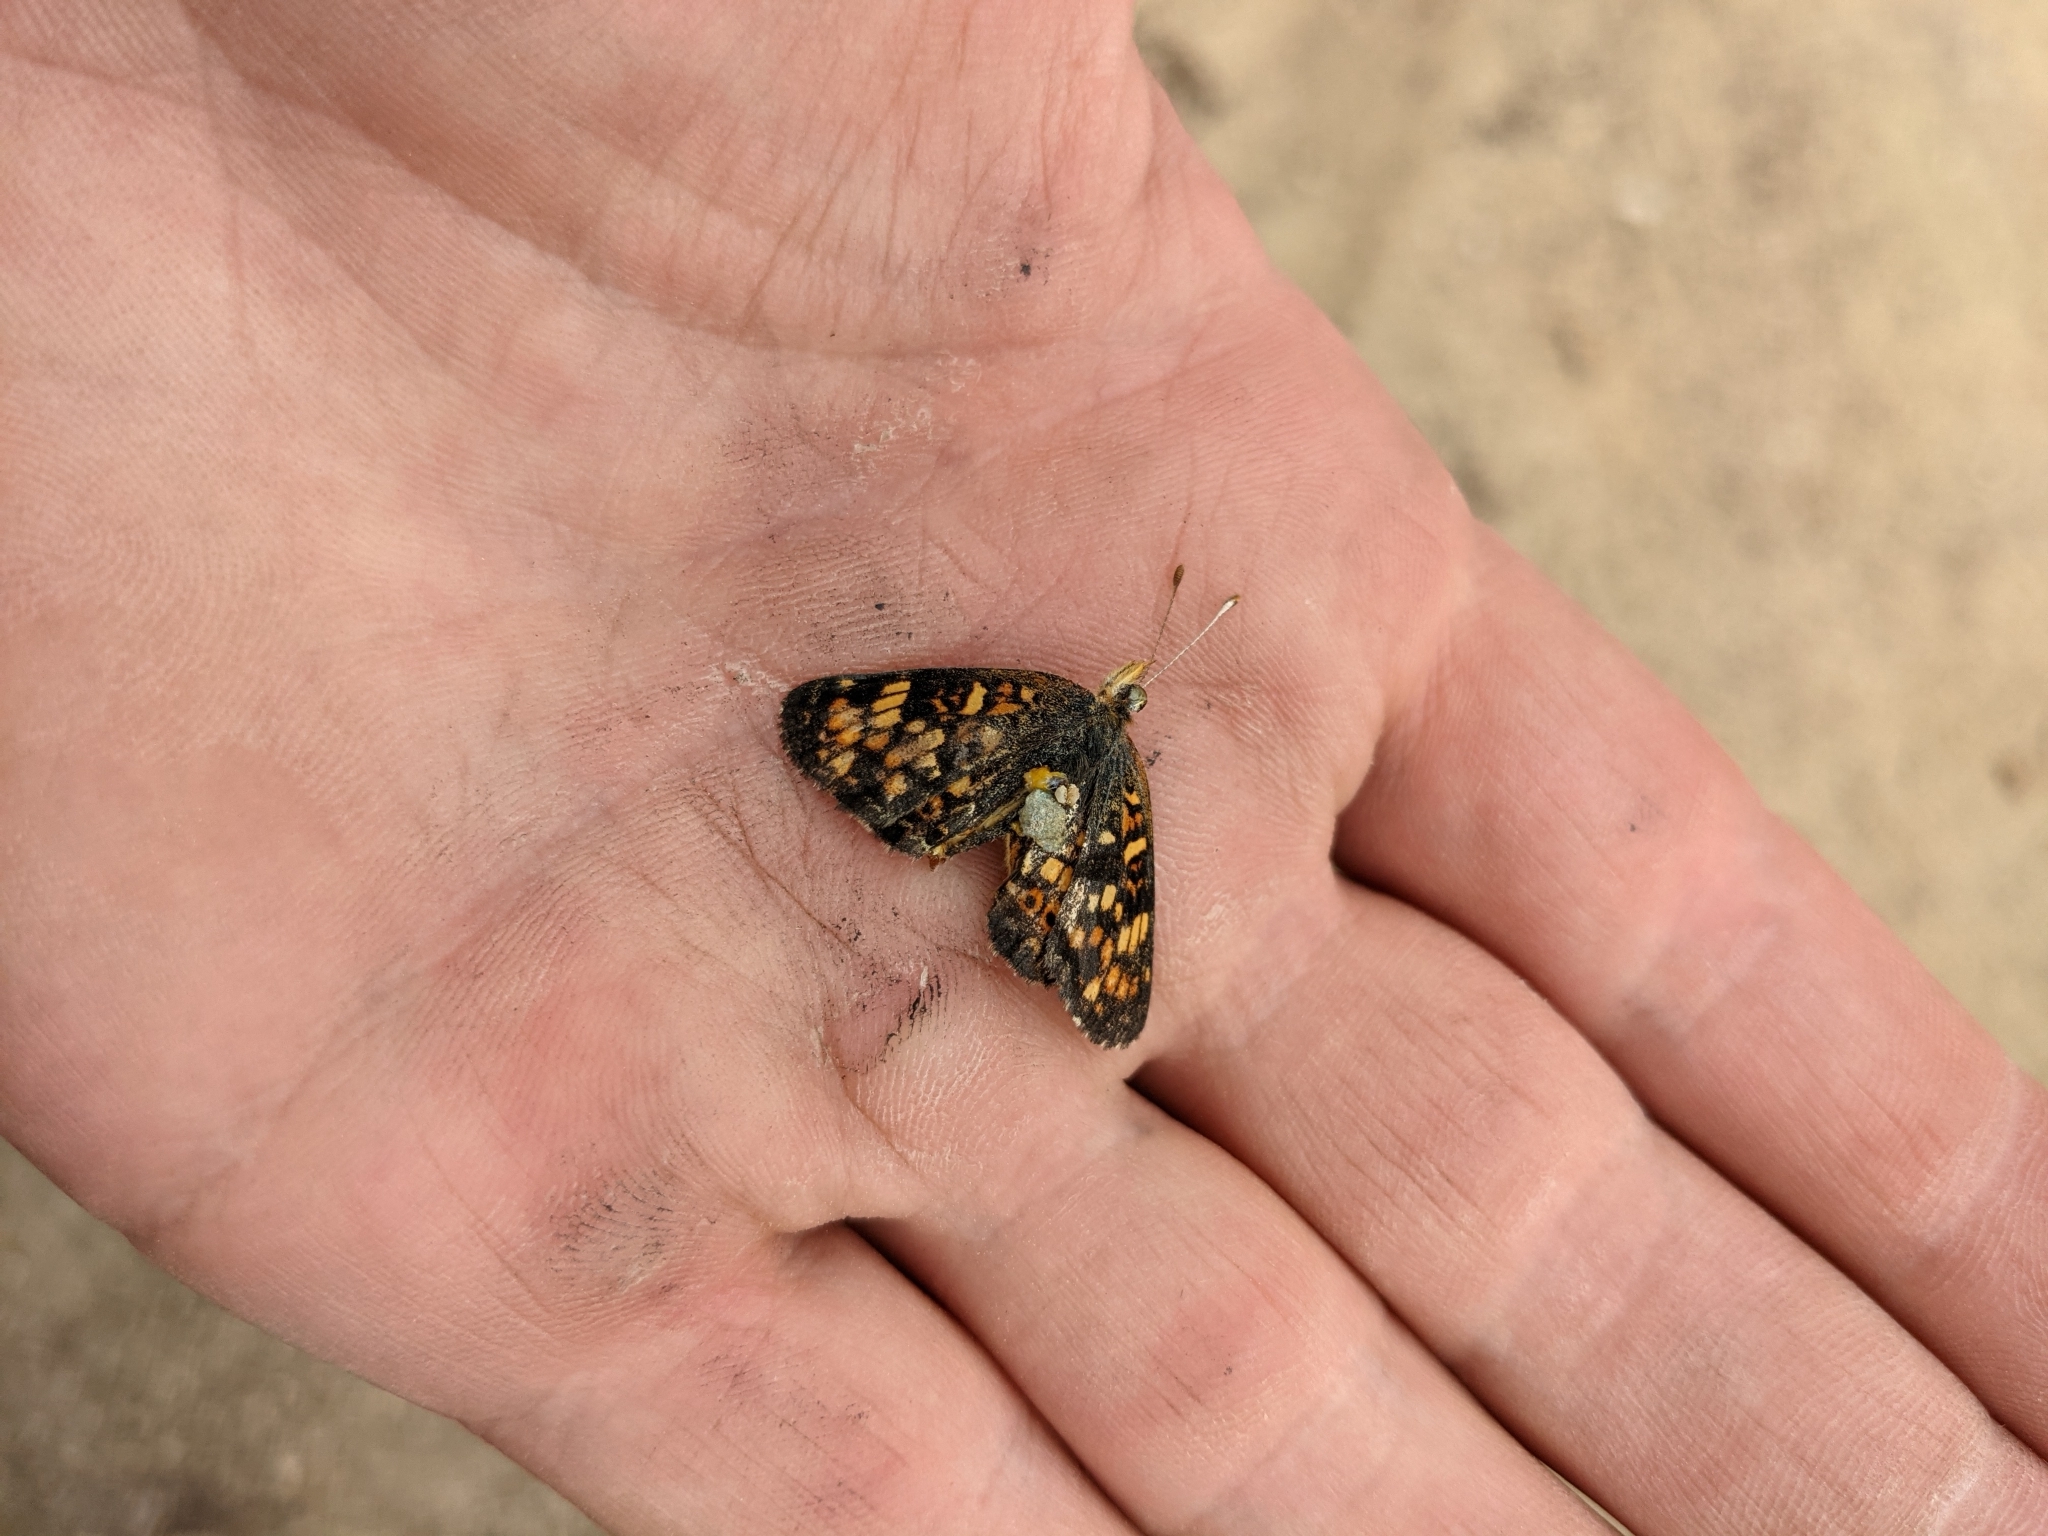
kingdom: Animalia
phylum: Arthropoda
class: Insecta
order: Lepidoptera
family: Nymphalidae
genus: Phyciodes
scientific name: Phyciodes tharos
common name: Pearl crescent
